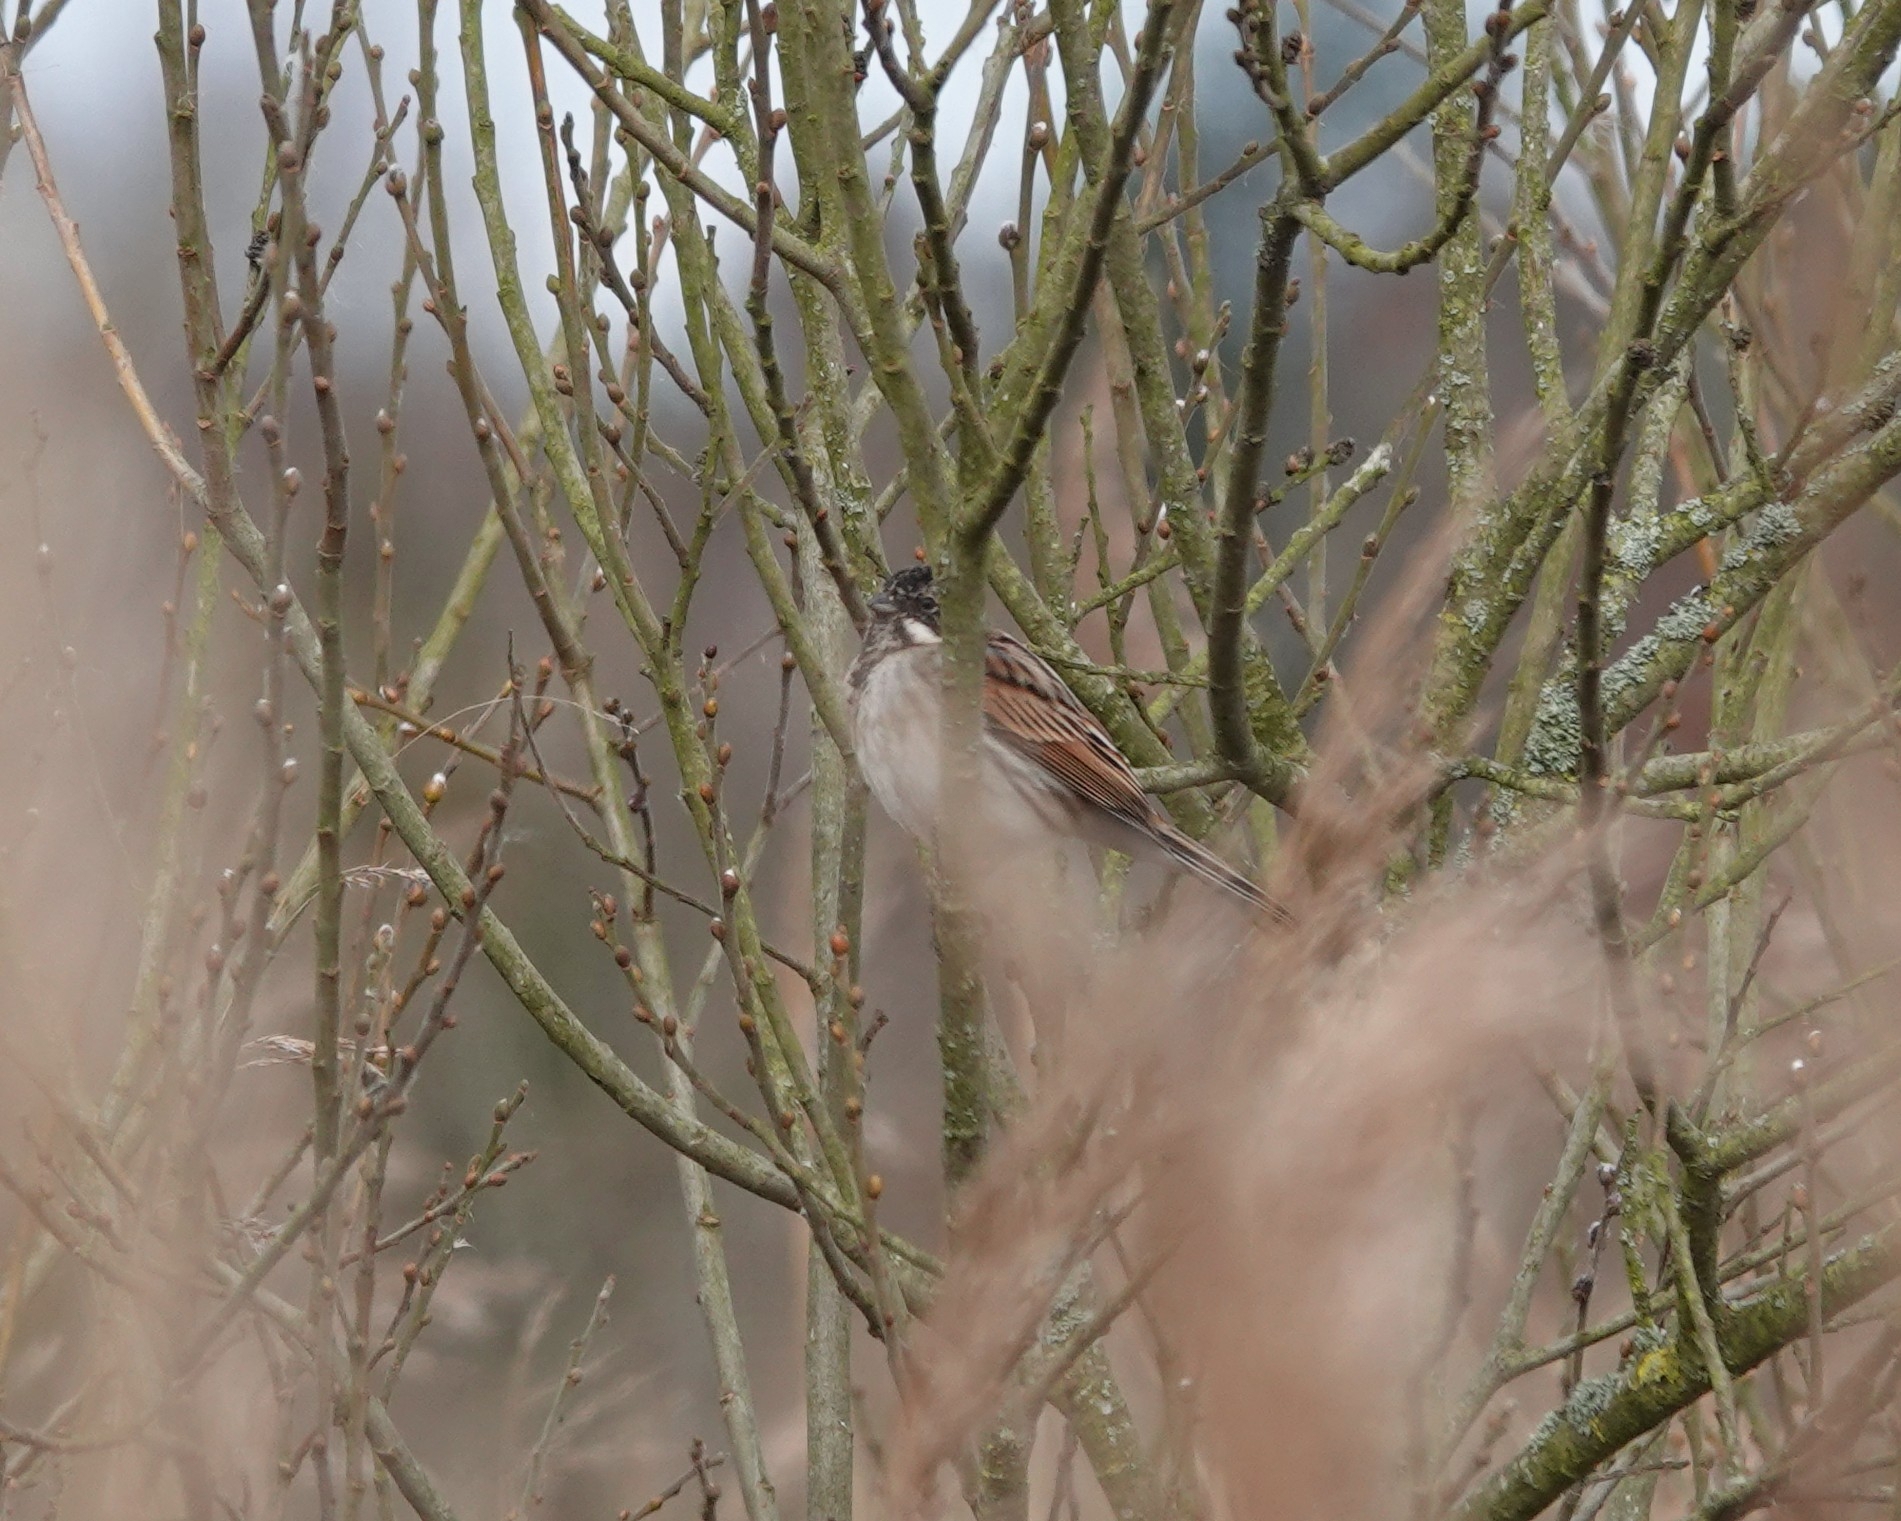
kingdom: Animalia
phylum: Chordata
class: Aves
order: Passeriformes
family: Emberizidae
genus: Emberiza
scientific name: Emberiza schoeniclus
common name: Reed bunting
